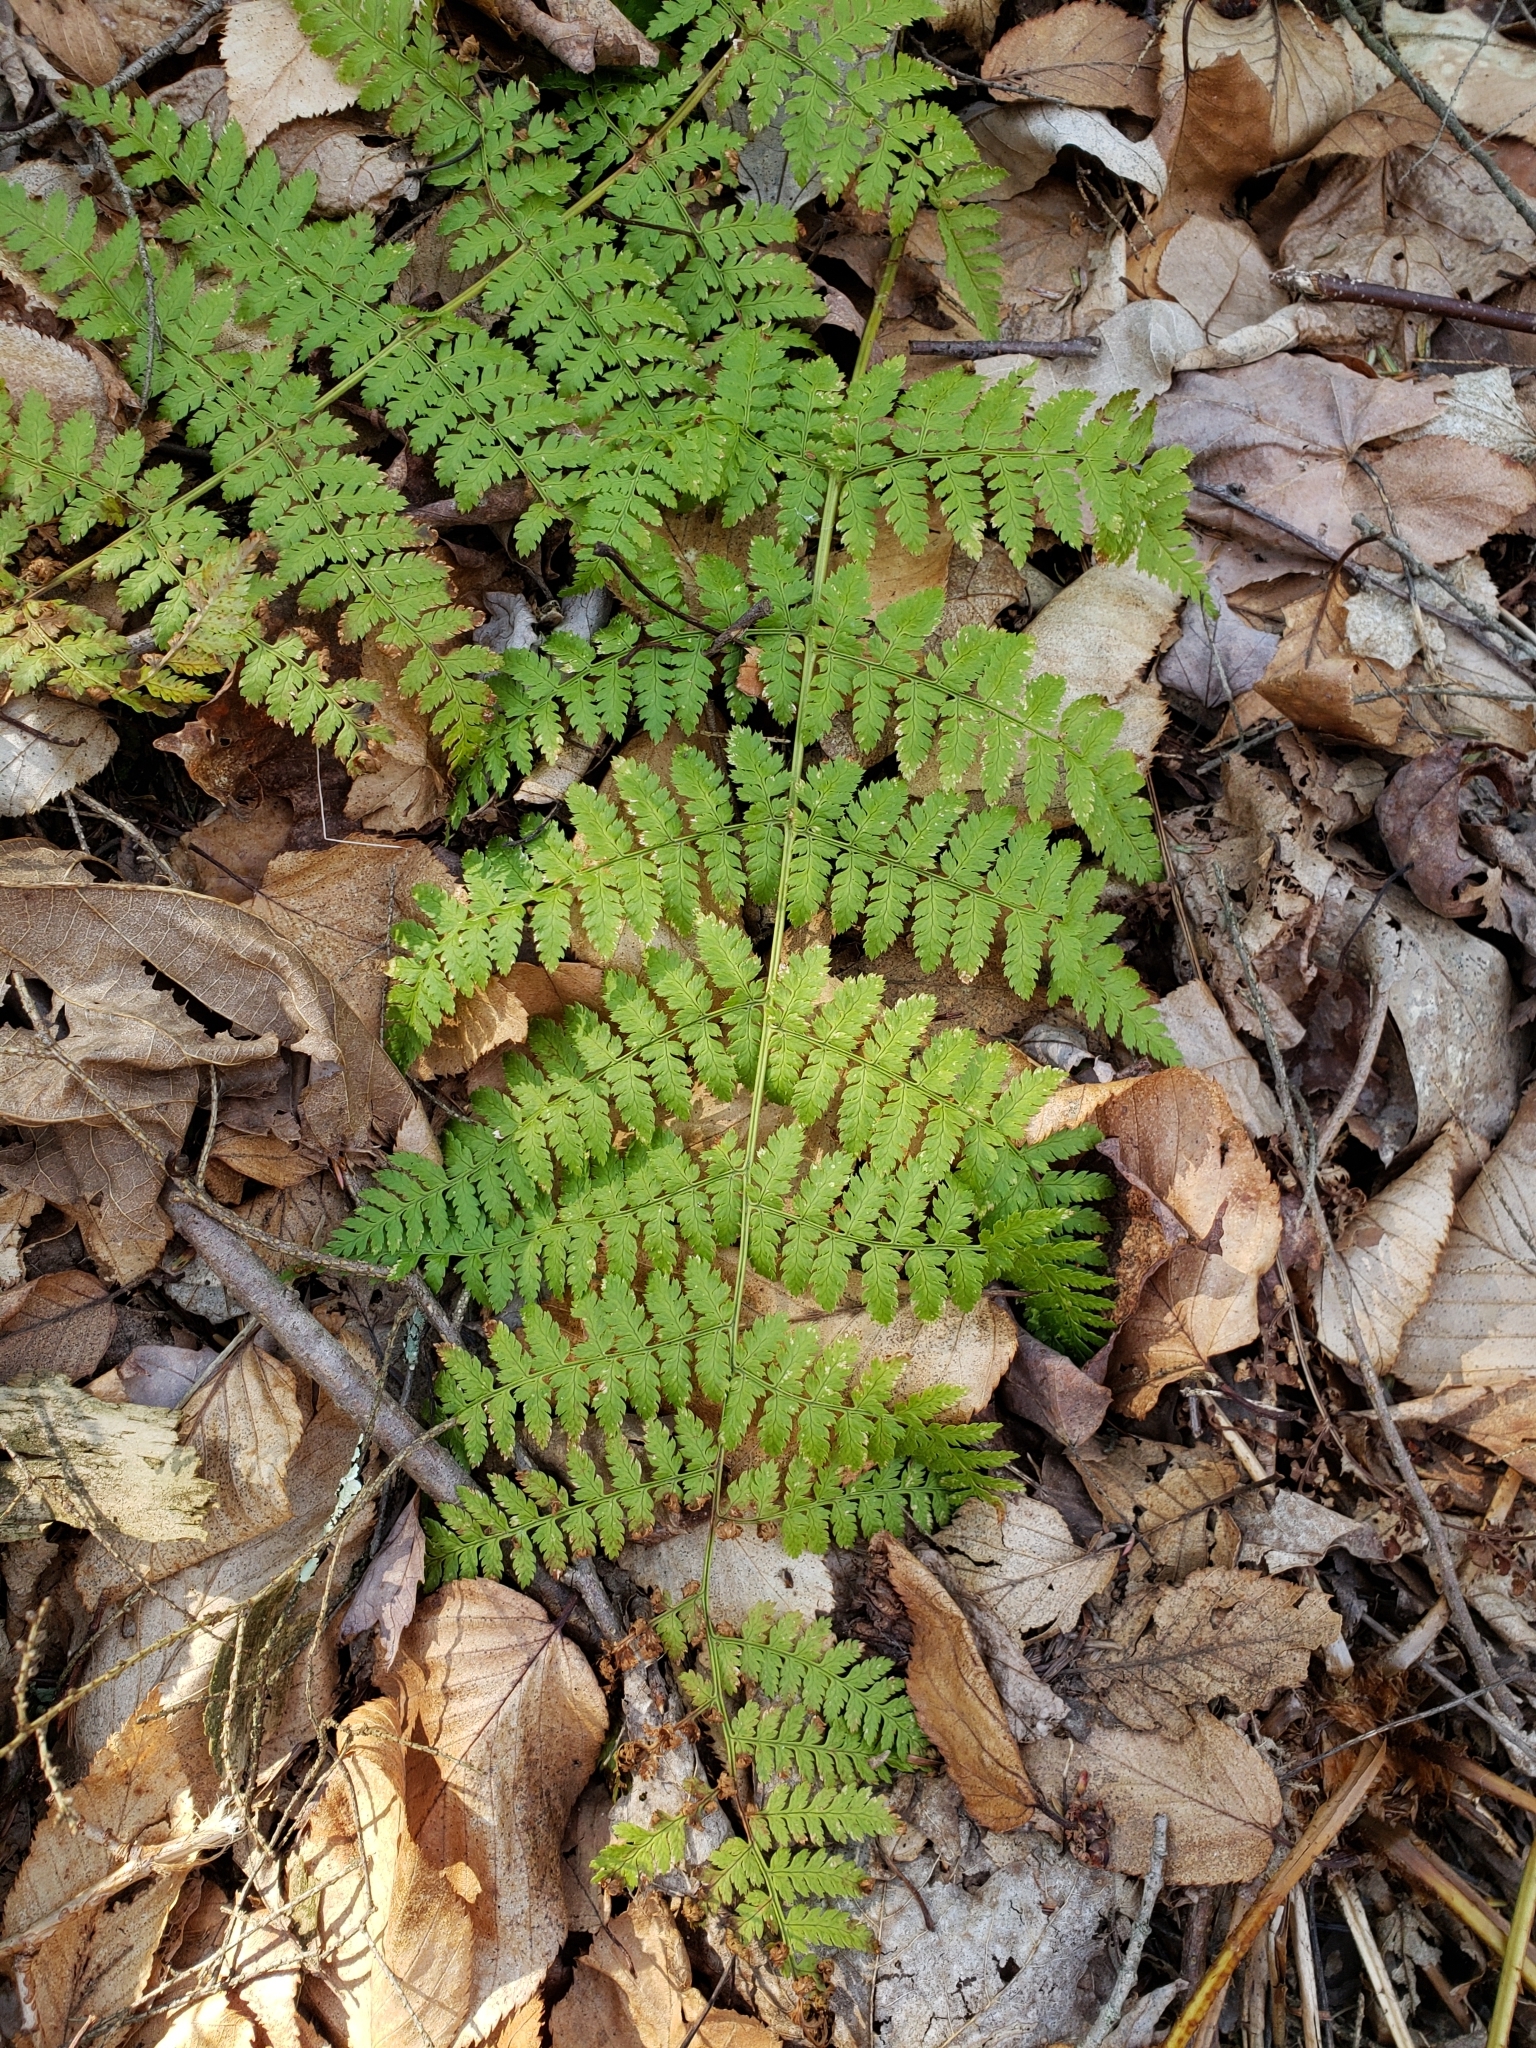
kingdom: Plantae
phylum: Tracheophyta
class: Polypodiopsida
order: Polypodiales
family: Dryopteridaceae
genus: Dryopteris
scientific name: Dryopteris intermedia
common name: Evergreen wood fern
